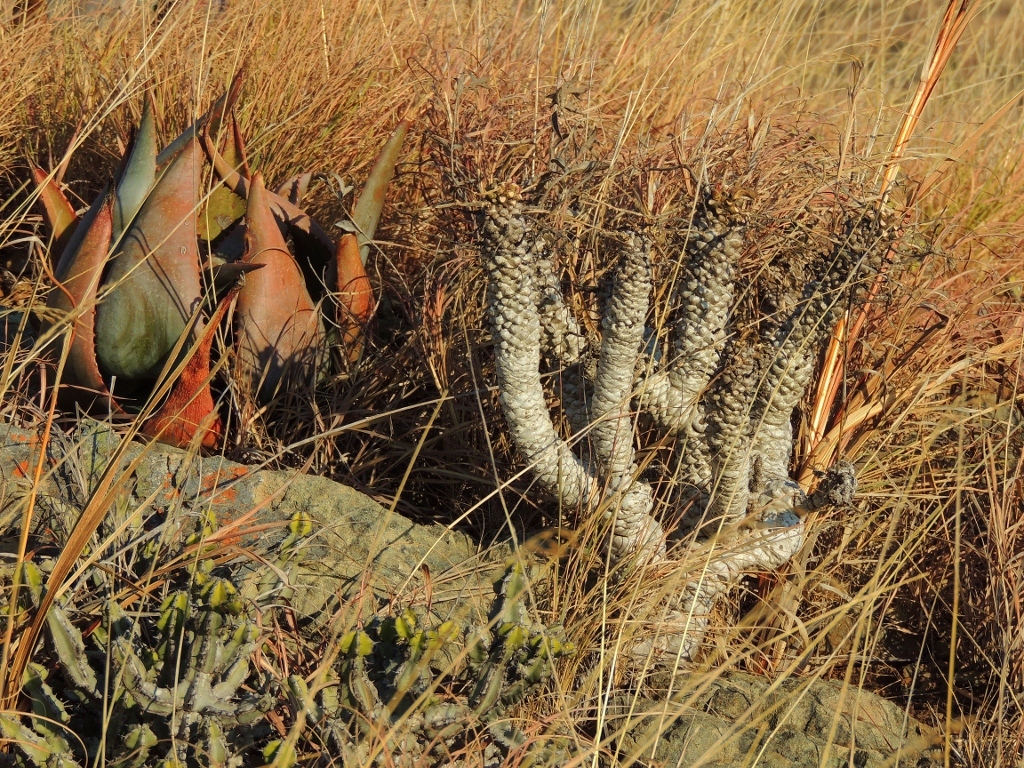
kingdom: Plantae
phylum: Tracheophyta
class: Magnoliopsida
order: Malpighiales
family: Euphorbiaceae
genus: Euphorbia
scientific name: Euphorbia wildii
